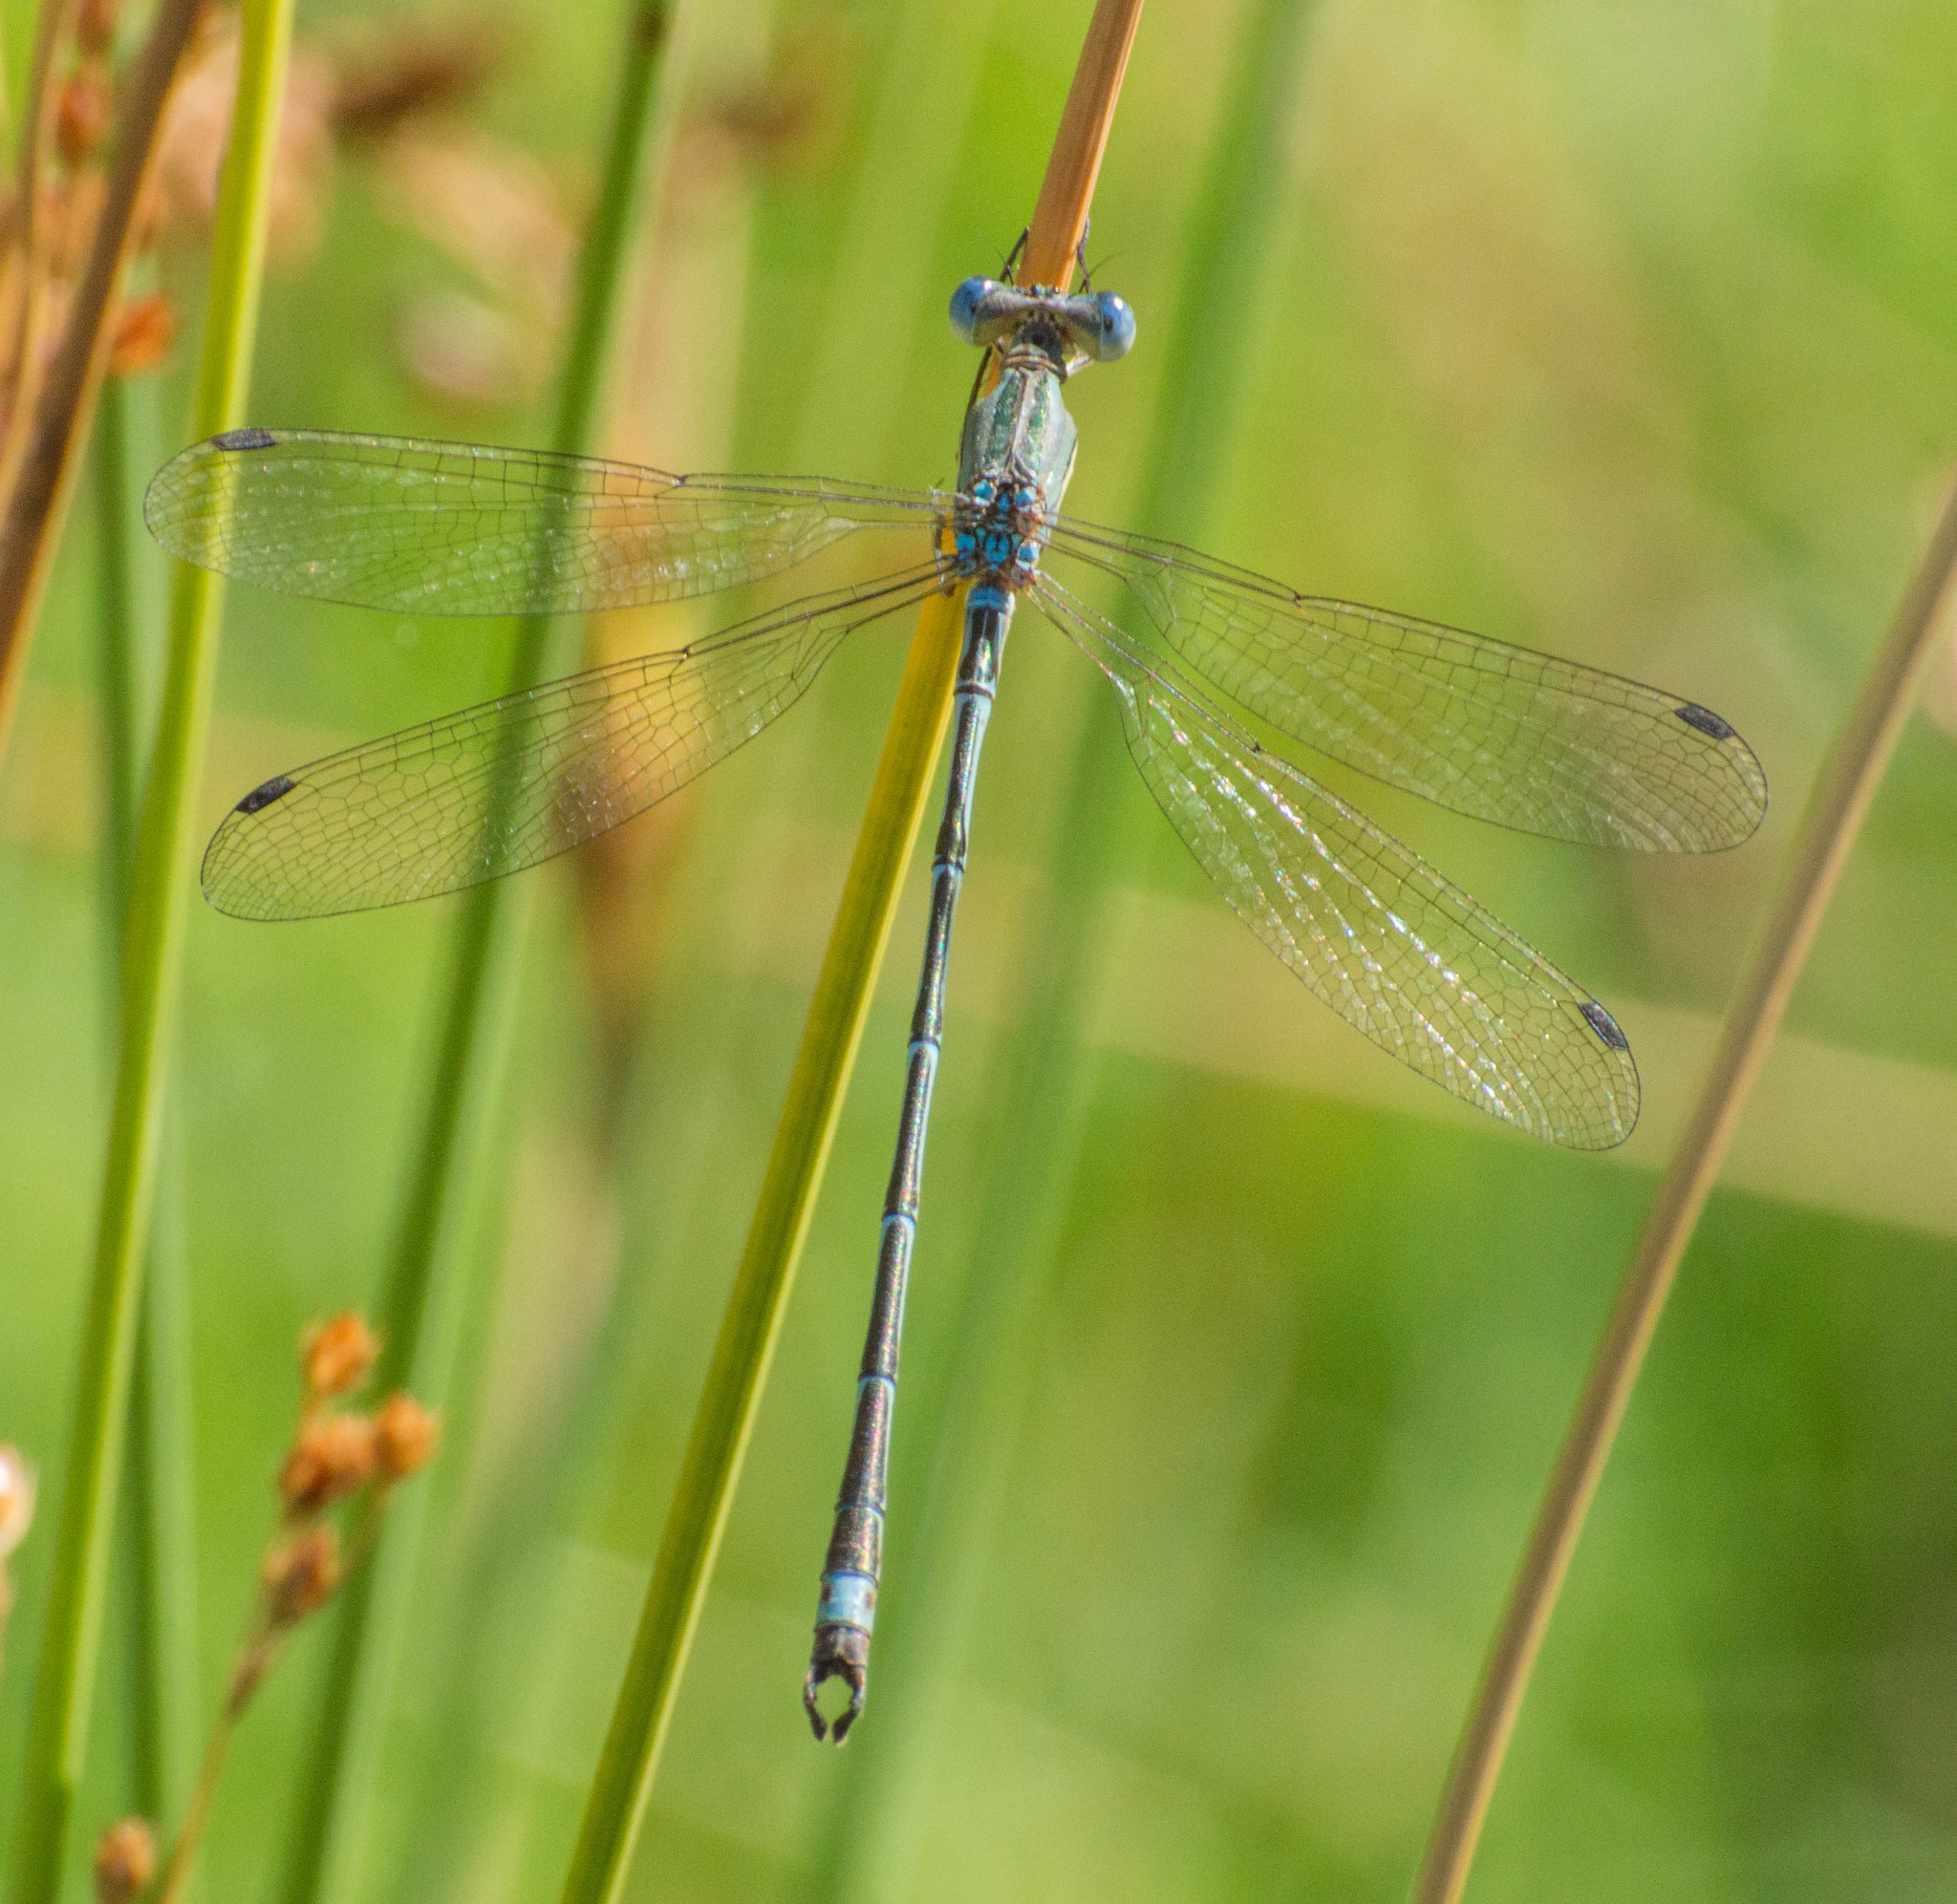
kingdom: Animalia
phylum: Arthropoda
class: Insecta
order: Odonata
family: Lestidae
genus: Lestes
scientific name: Lestes undulatus
